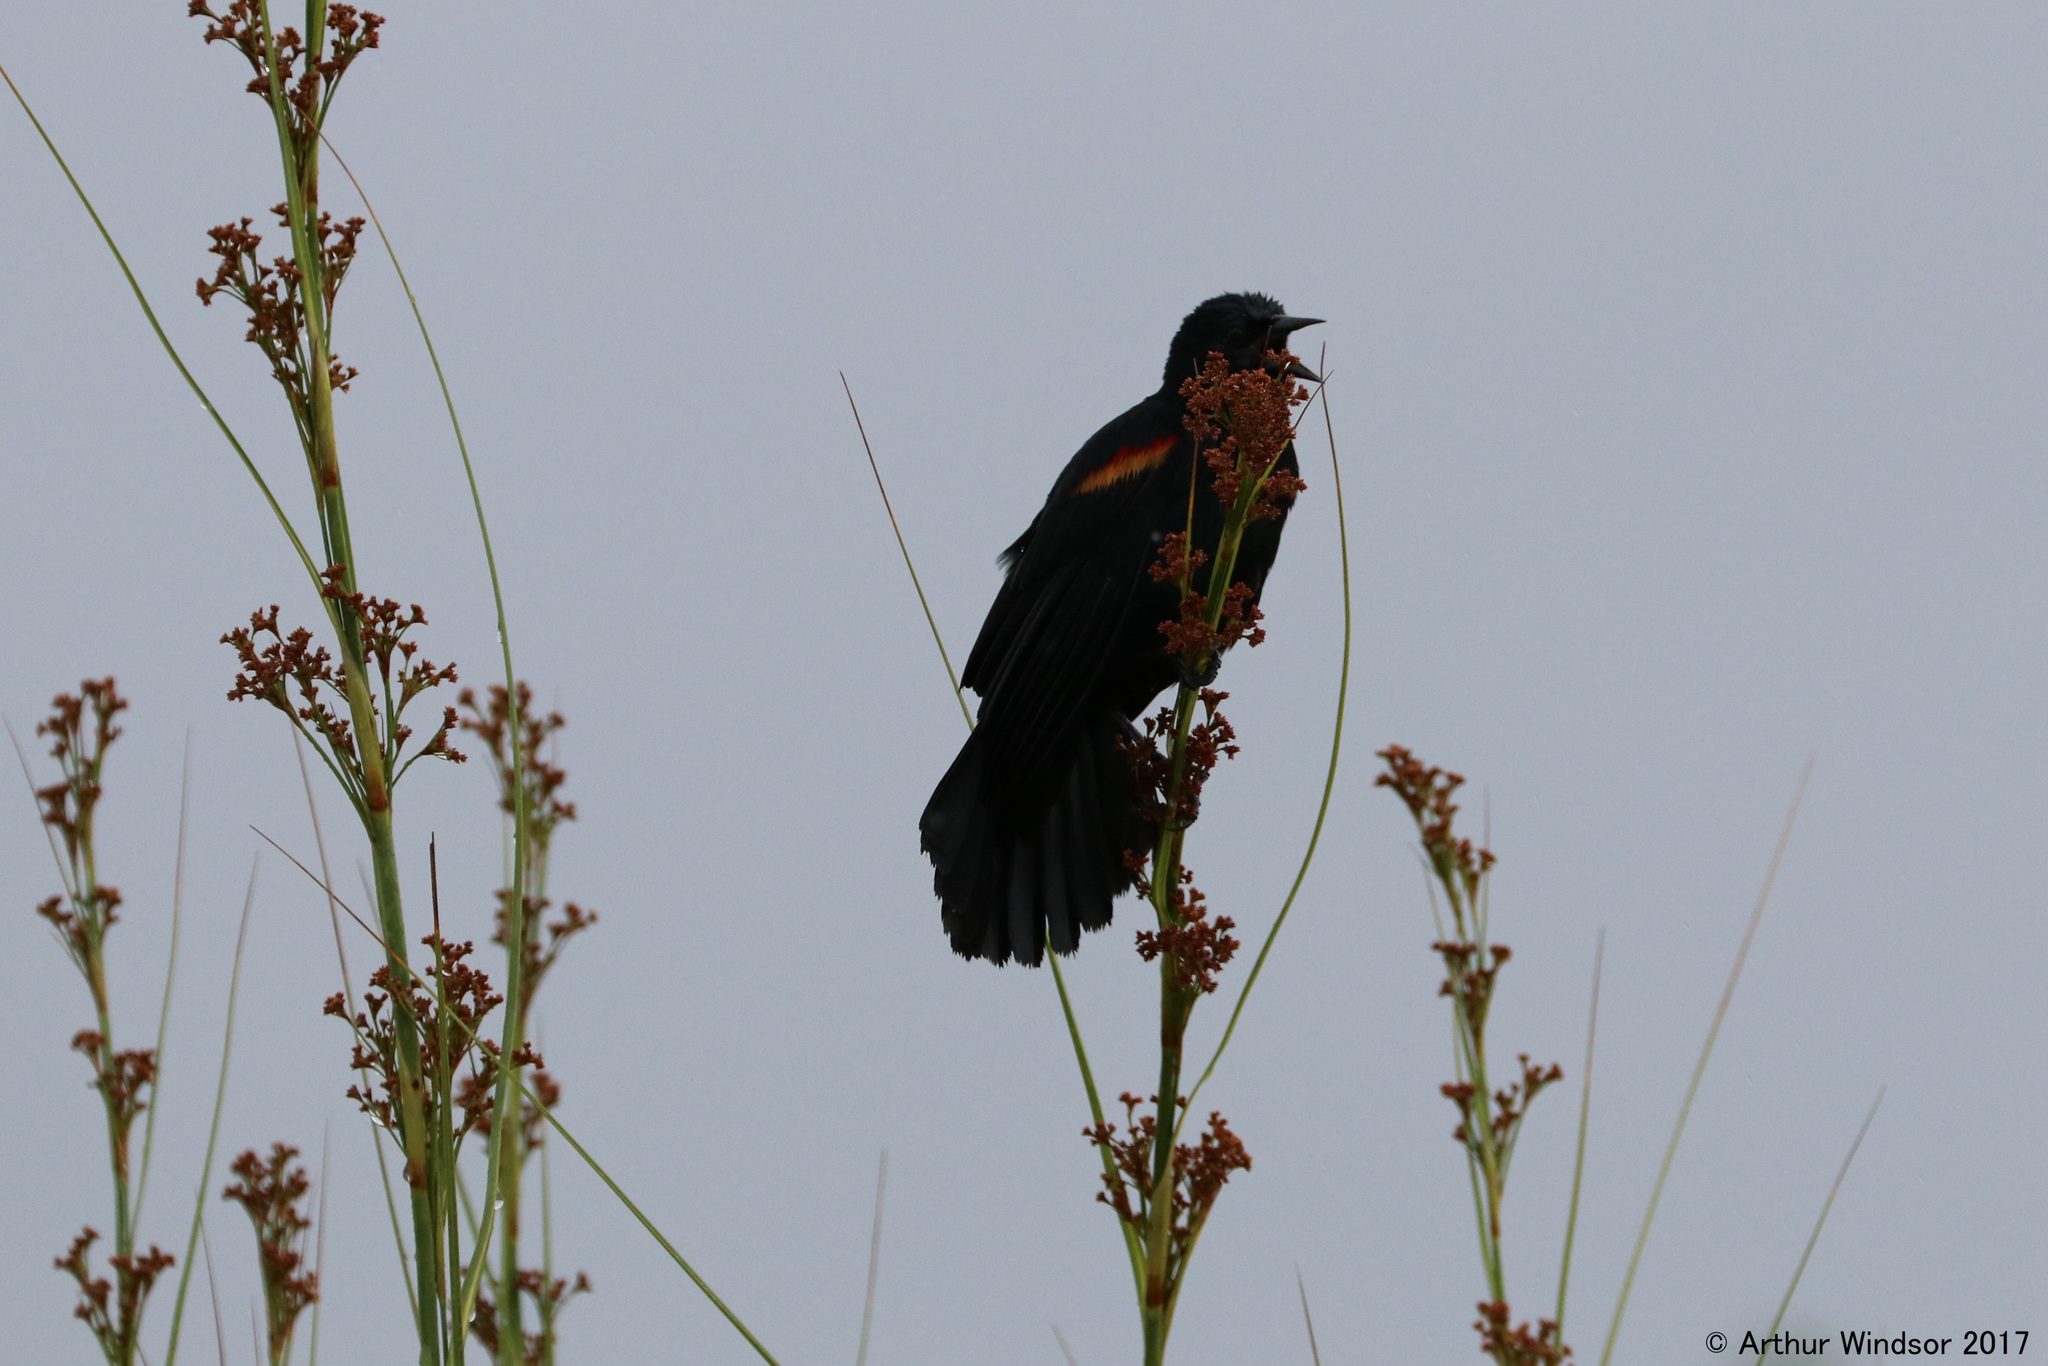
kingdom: Animalia
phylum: Chordata
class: Aves
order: Passeriformes
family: Icteridae
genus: Agelaius
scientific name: Agelaius phoeniceus
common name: Red-winged blackbird
